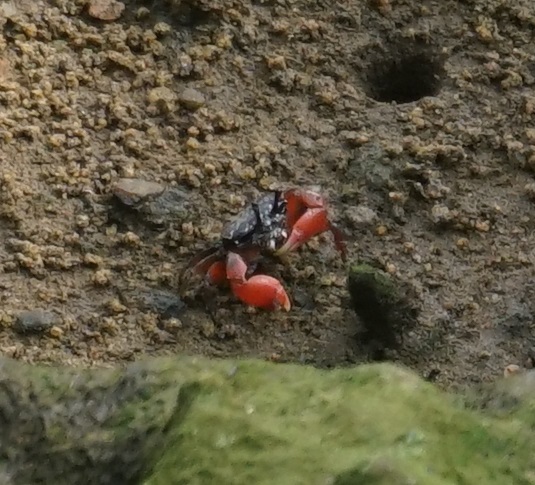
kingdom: Animalia
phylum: Arthropoda
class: Malacostraca
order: Decapoda
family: Heloeciidae
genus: Heloecius
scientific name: Heloecius cordiformis
